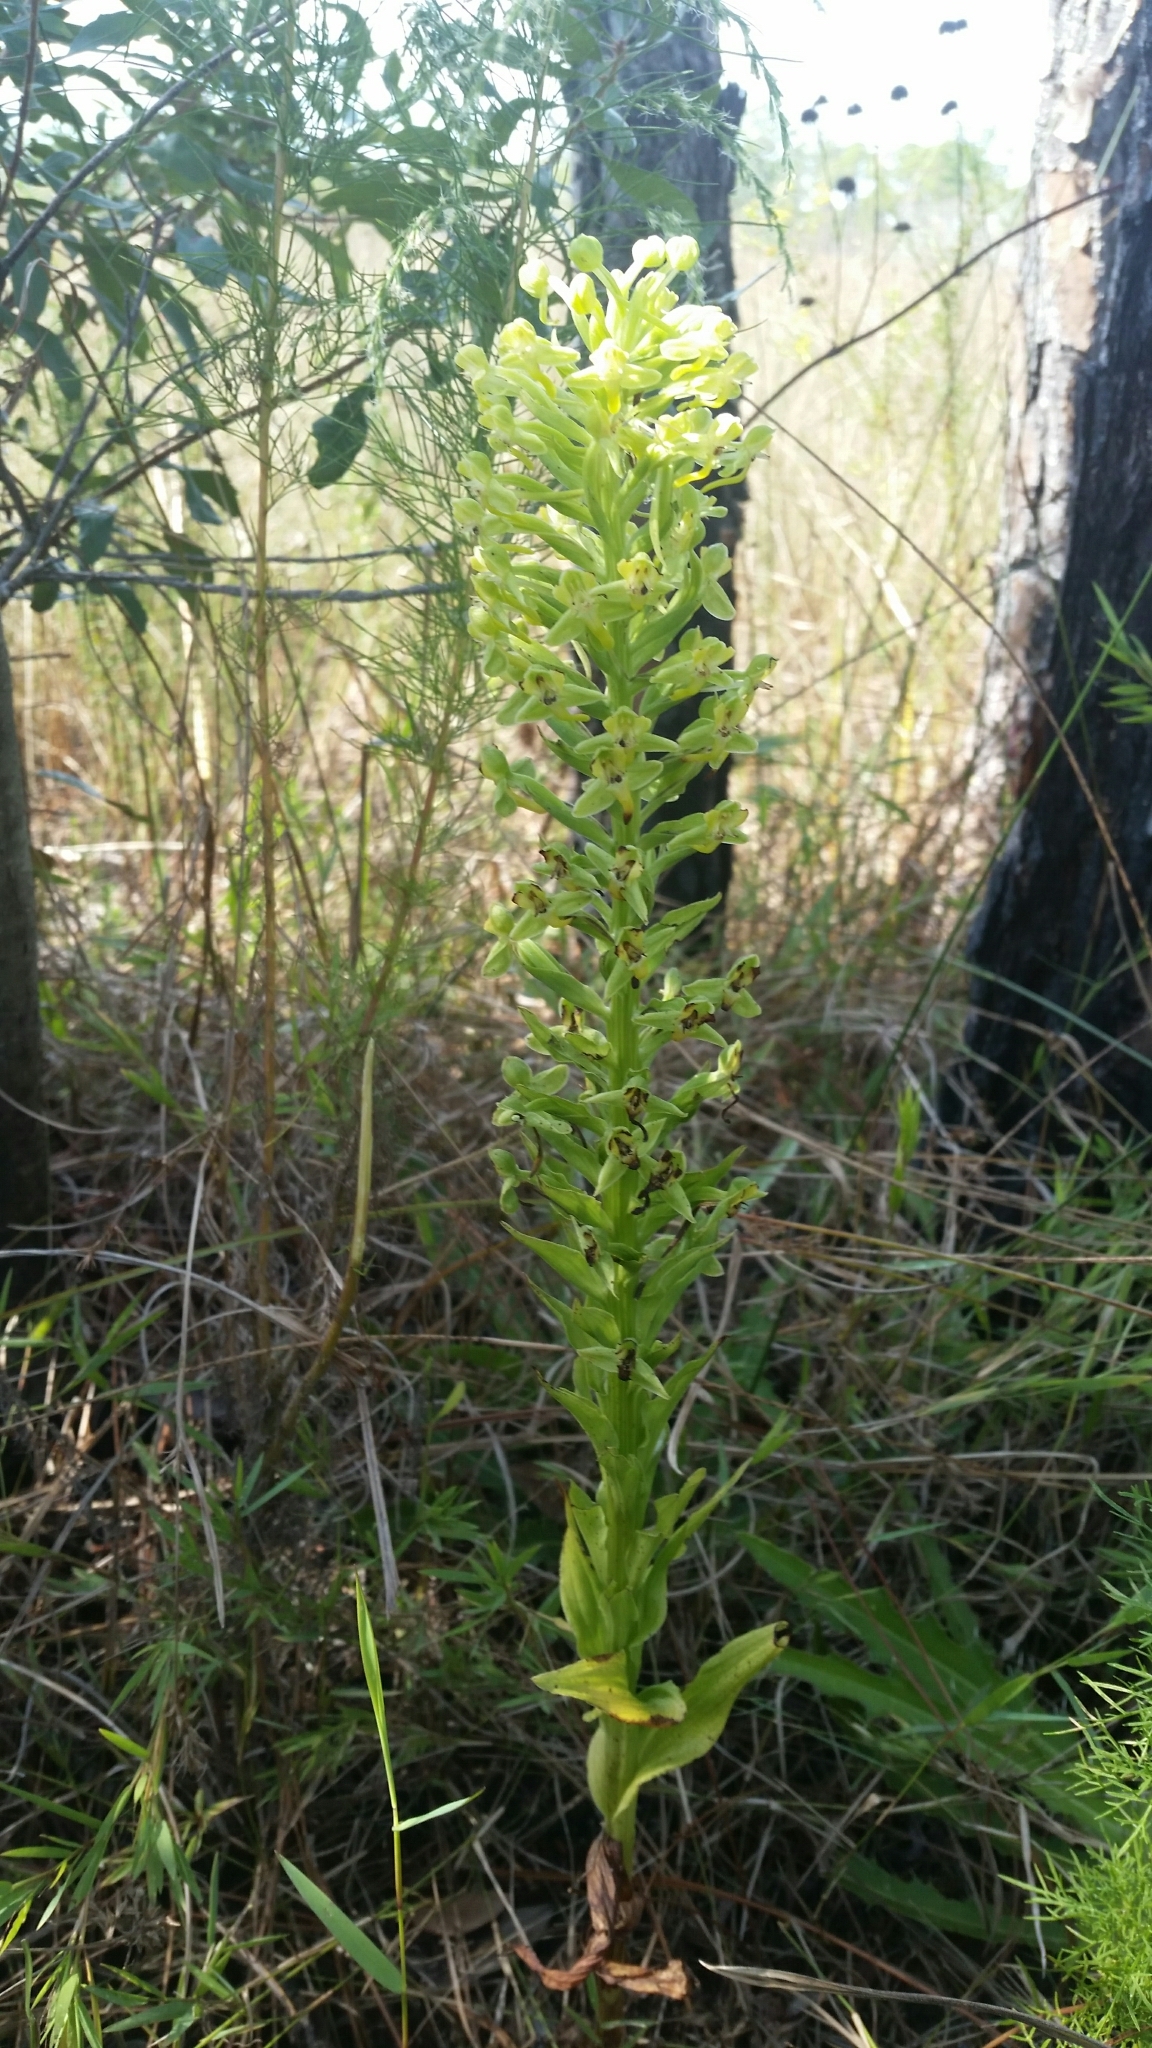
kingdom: Plantae
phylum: Tracheophyta
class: Liliopsida
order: Asparagales
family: Orchidaceae
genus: Habenaria
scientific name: Habenaria floribunda
